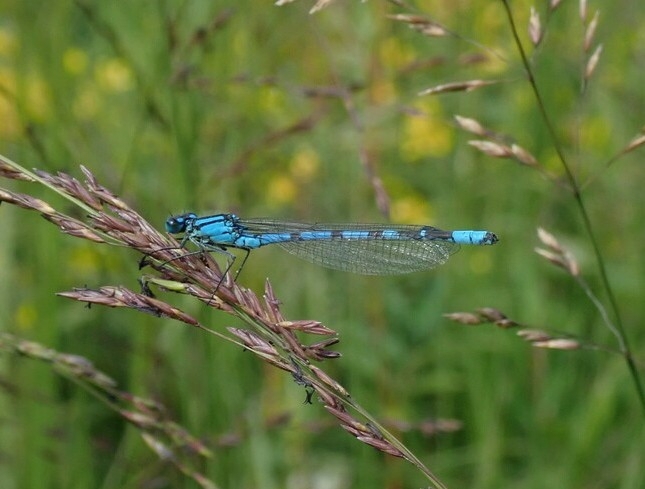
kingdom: Animalia
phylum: Arthropoda
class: Insecta
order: Odonata
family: Coenagrionidae
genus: Enallagma
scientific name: Enallagma cyathigerum
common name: Common blue damselfly
